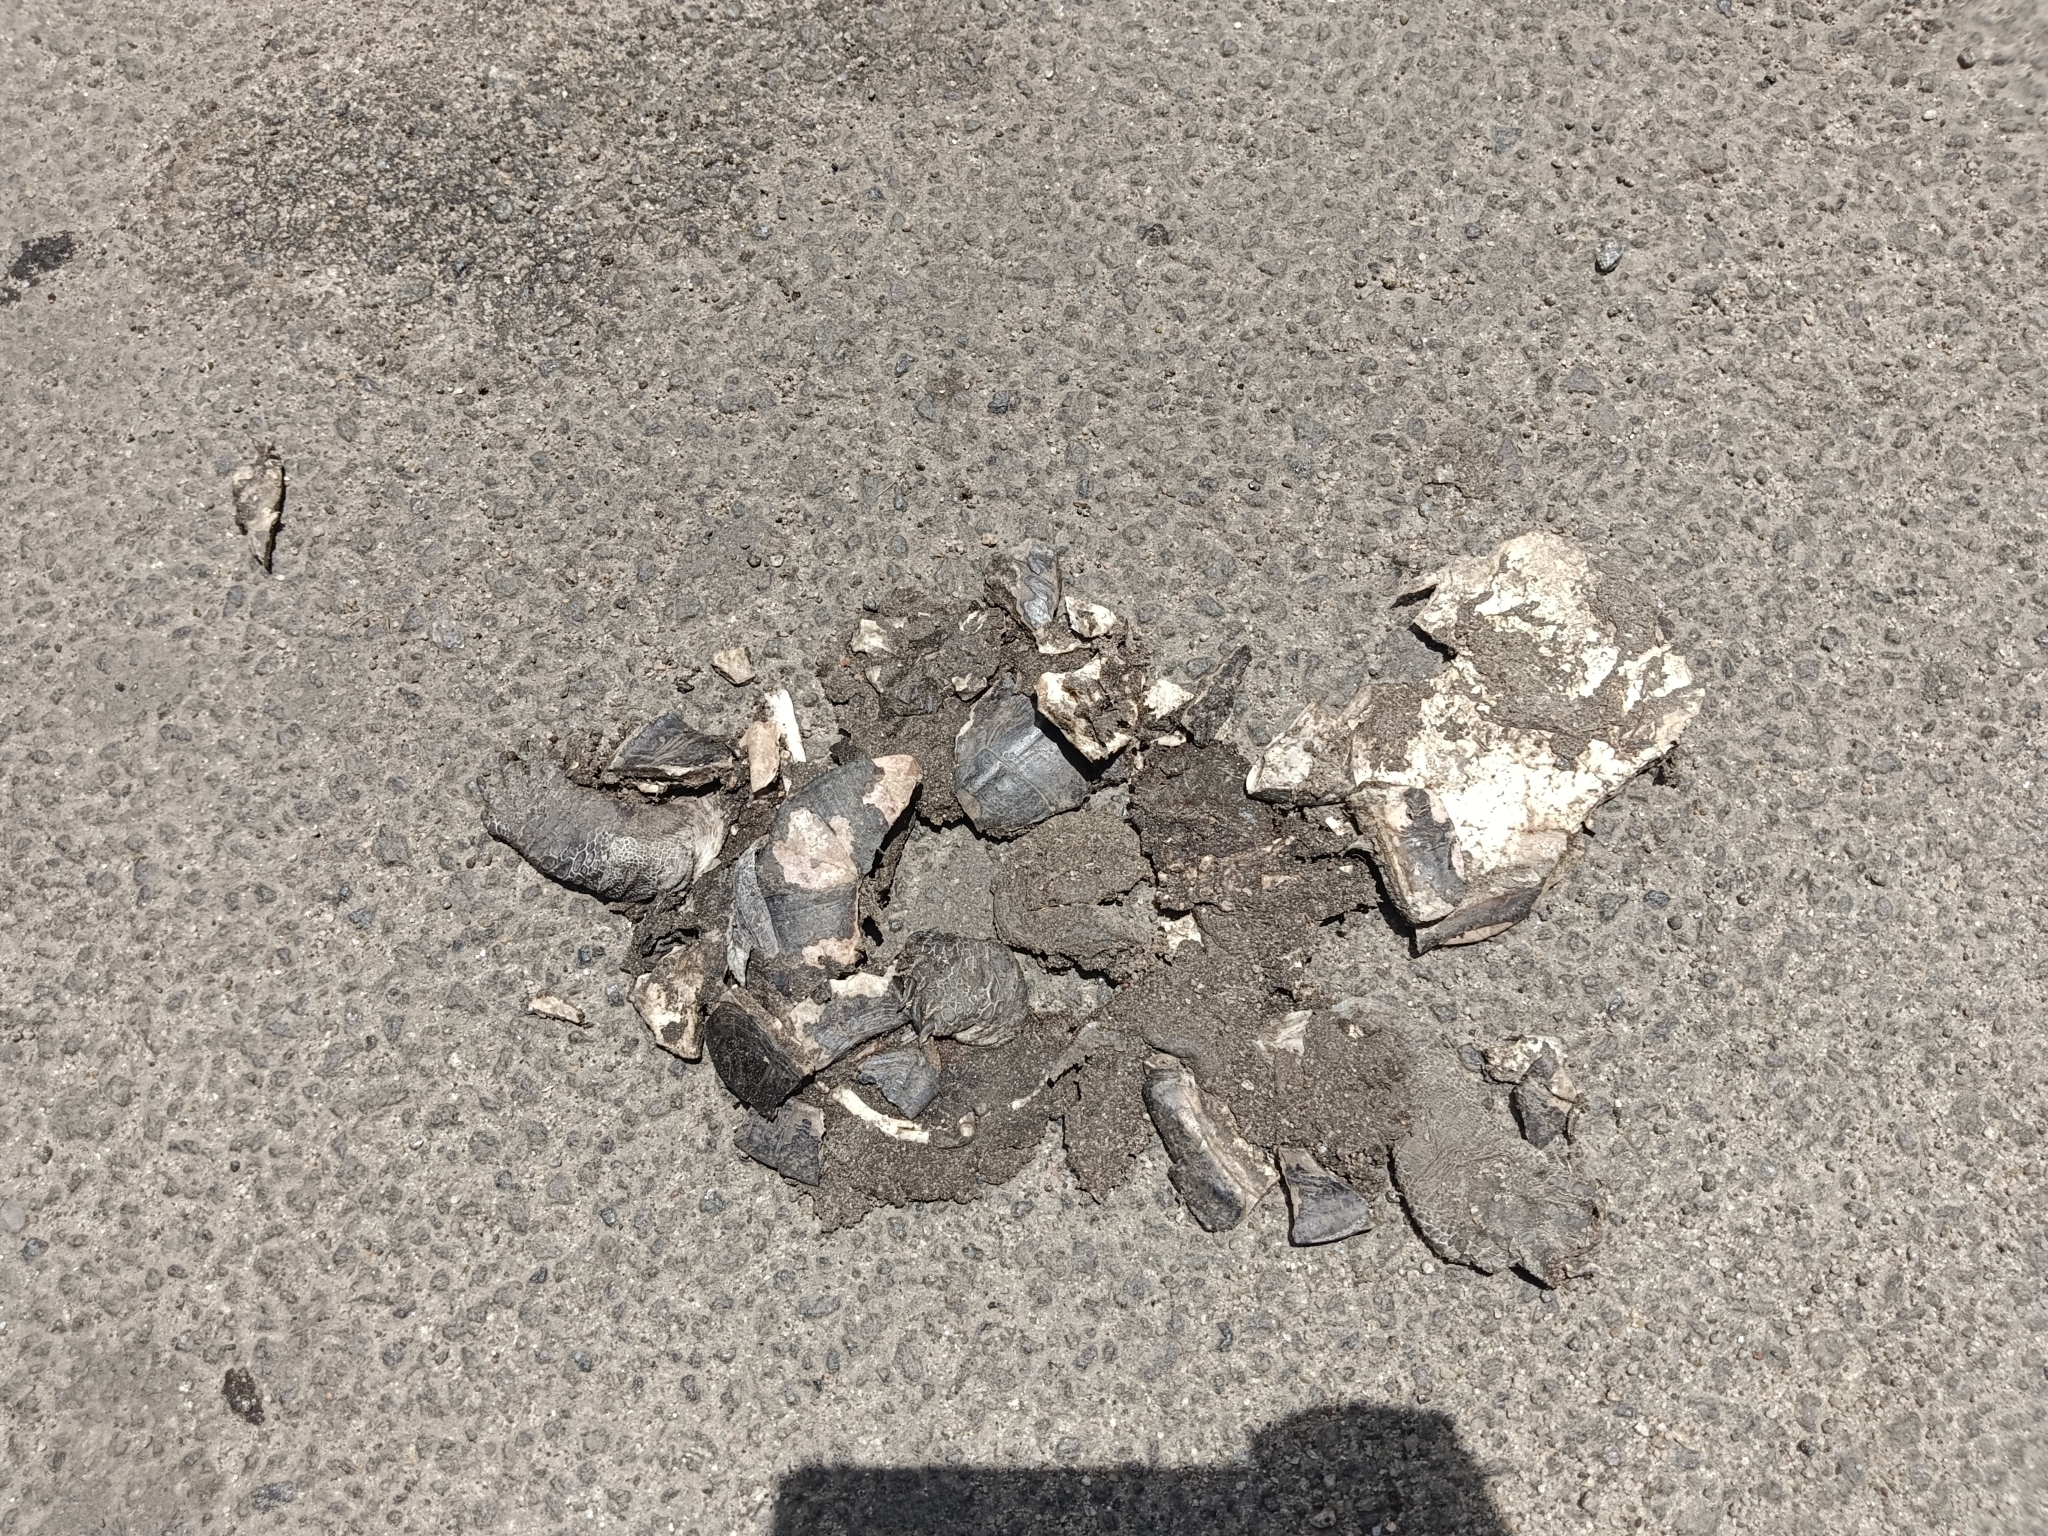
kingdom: Animalia
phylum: Chordata
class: Testudines
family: Geoemydidae
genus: Melanochelys
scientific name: Melanochelys trijuga
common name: Indian black turtle
